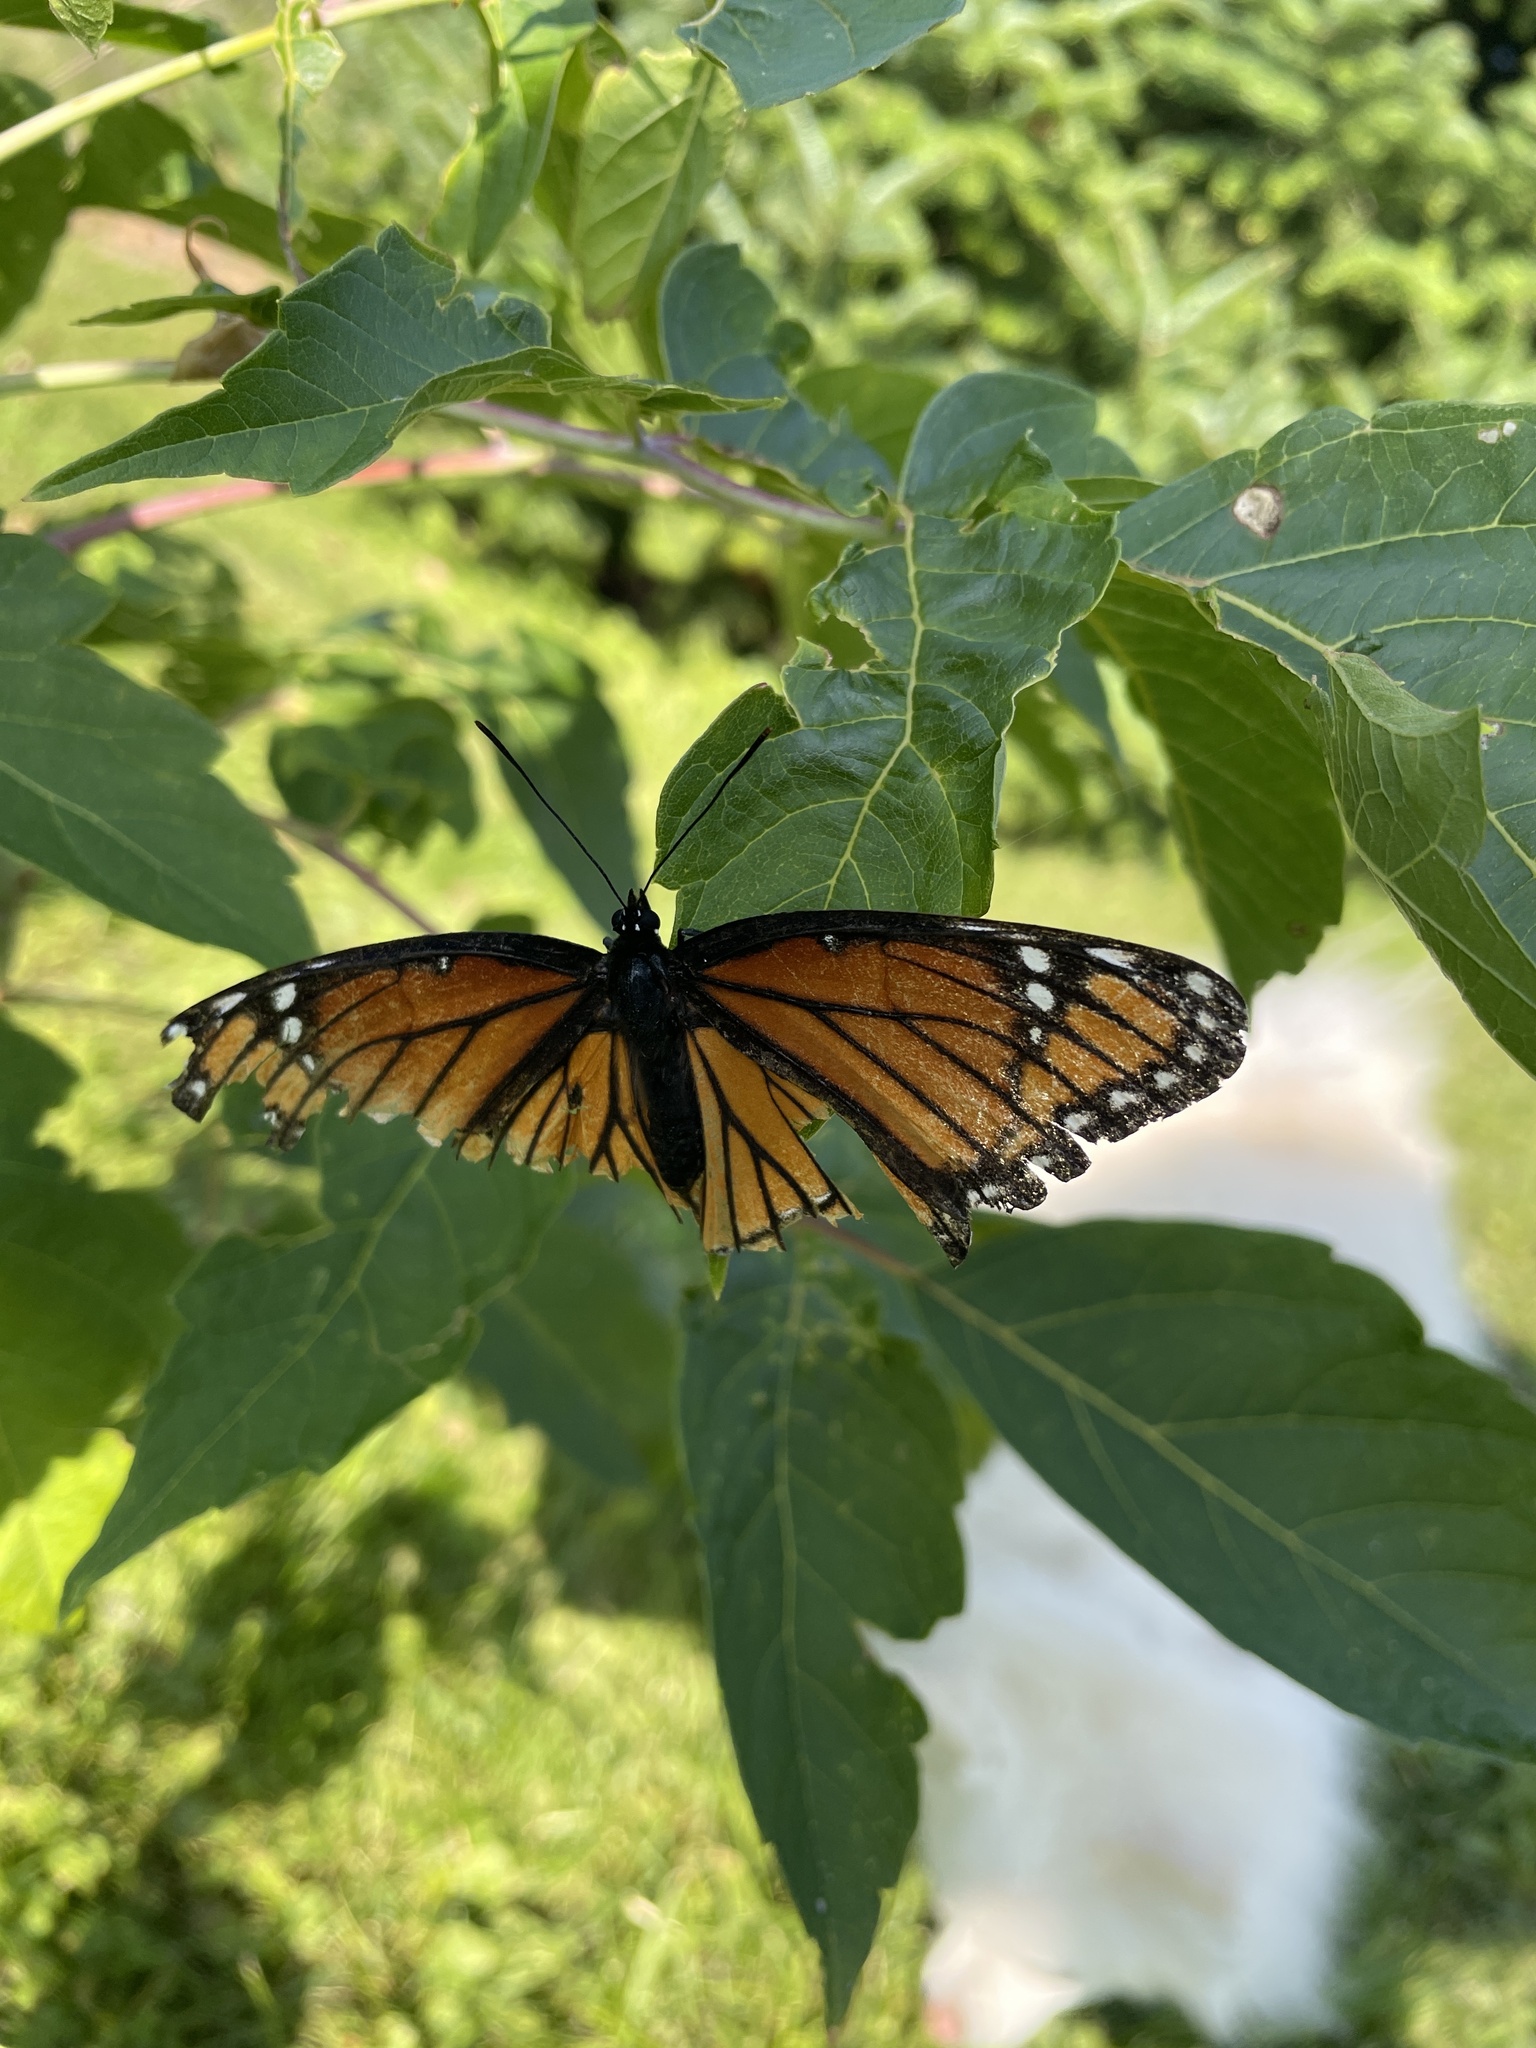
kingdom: Animalia
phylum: Arthropoda
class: Insecta
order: Lepidoptera
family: Nymphalidae
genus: Limenitis
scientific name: Limenitis archippus
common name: Viceroy
